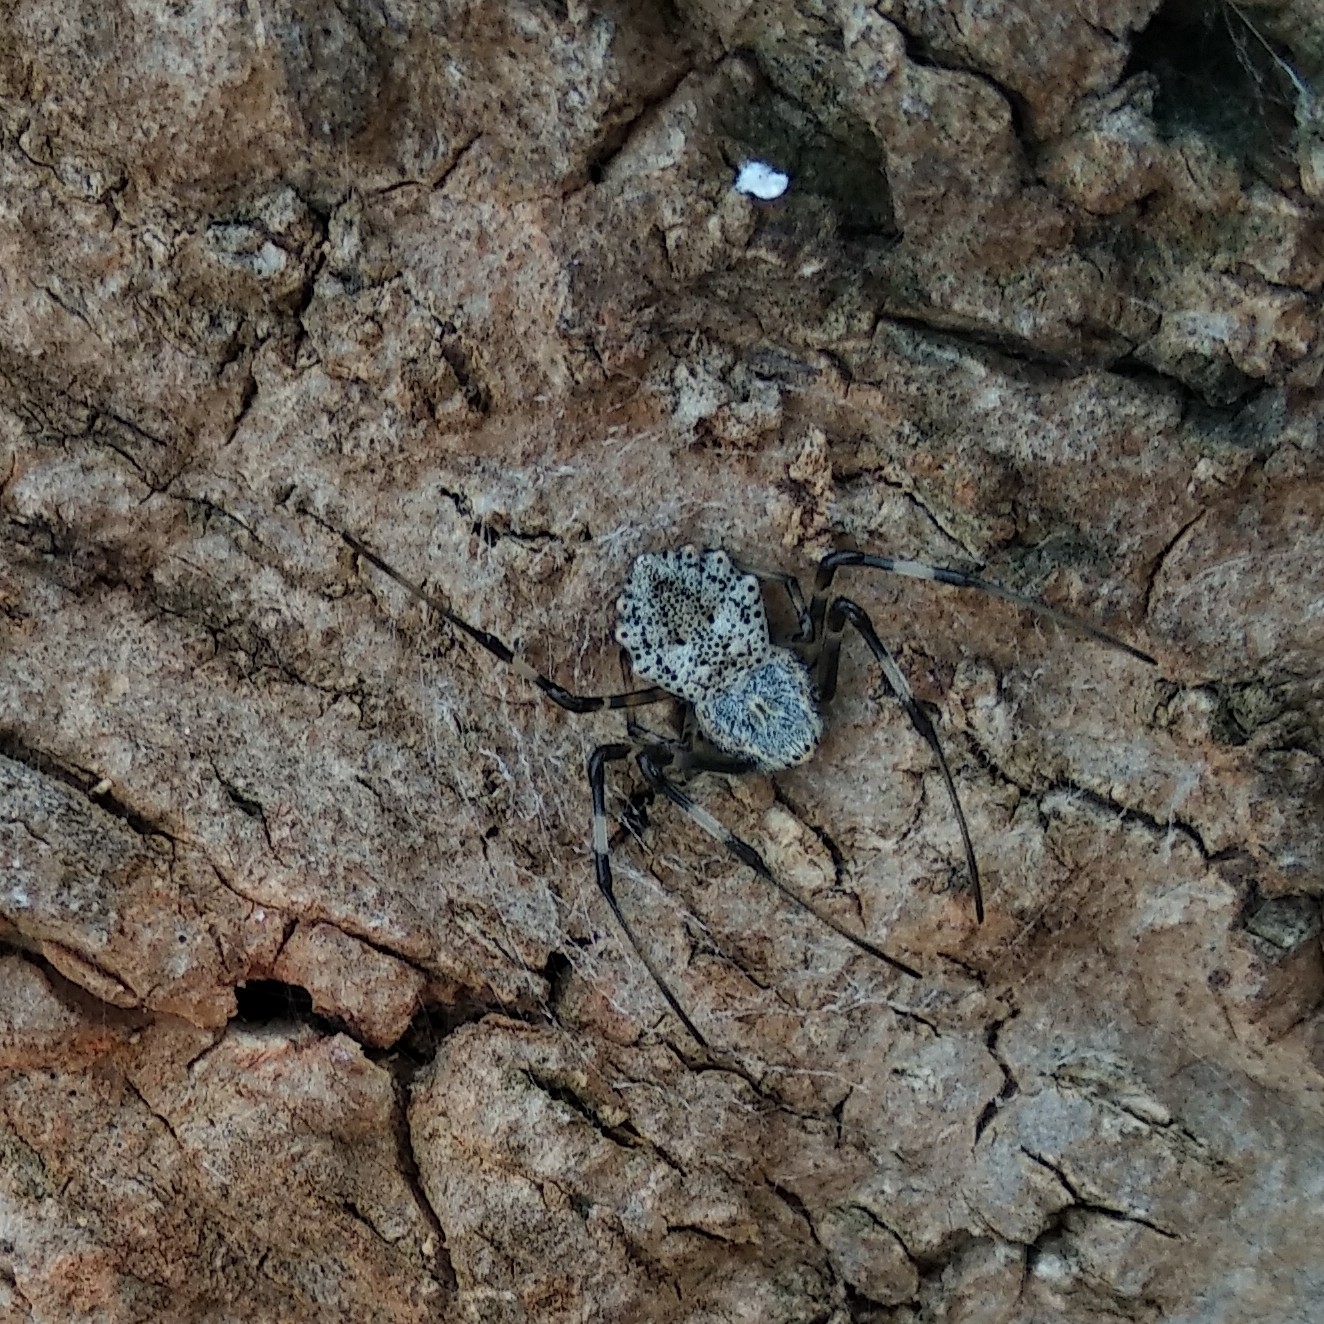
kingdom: Animalia
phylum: Arthropoda
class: Arachnida
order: Araneae
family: Araneidae
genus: Herennia
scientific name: Herennia multipuncta
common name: Spotted coin spider
